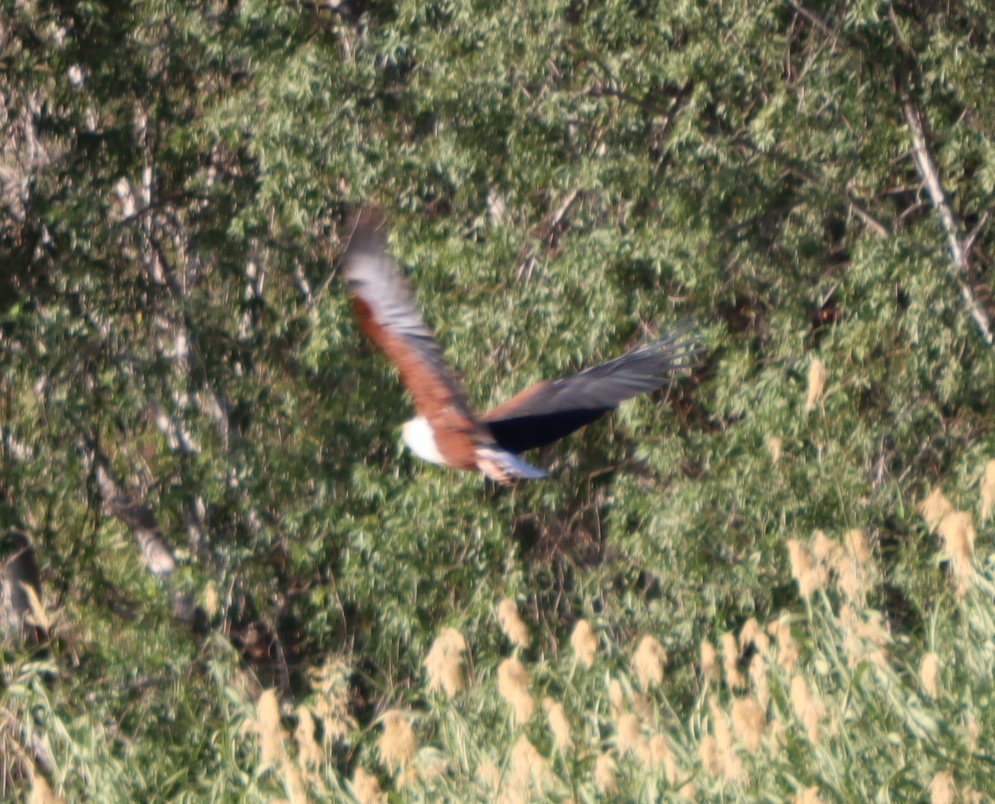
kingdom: Animalia
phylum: Chordata
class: Aves
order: Accipitriformes
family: Accipitridae
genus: Haliaeetus
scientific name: Haliaeetus vocifer
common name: African fish eagle
